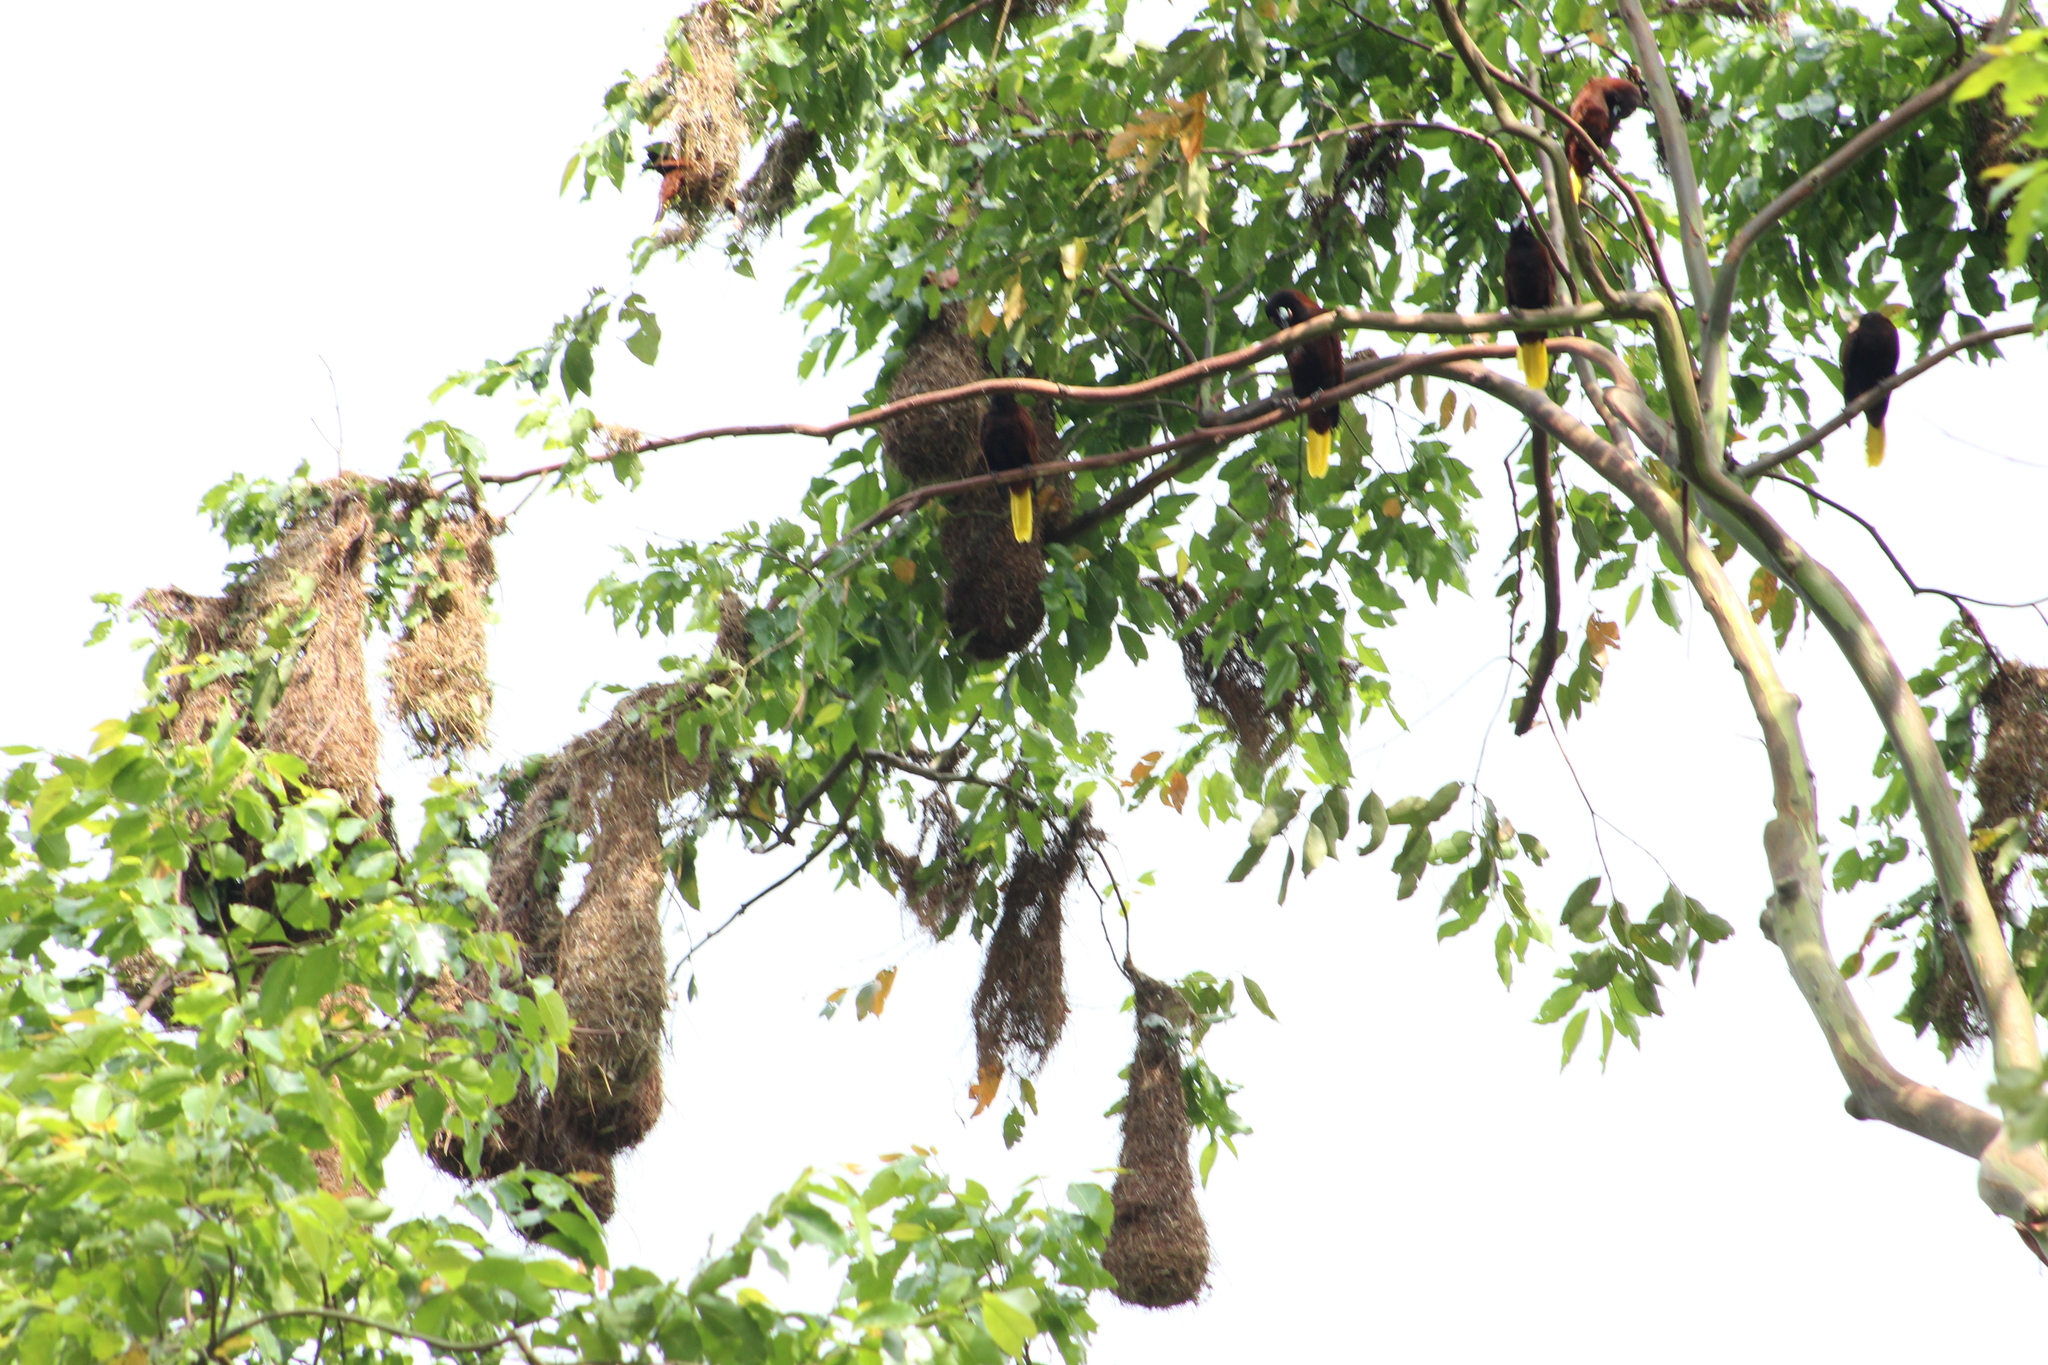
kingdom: Animalia
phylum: Chordata
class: Aves
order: Passeriformes
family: Icteridae
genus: Psarocolius
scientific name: Psarocolius montezuma
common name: Montezuma oropendola
